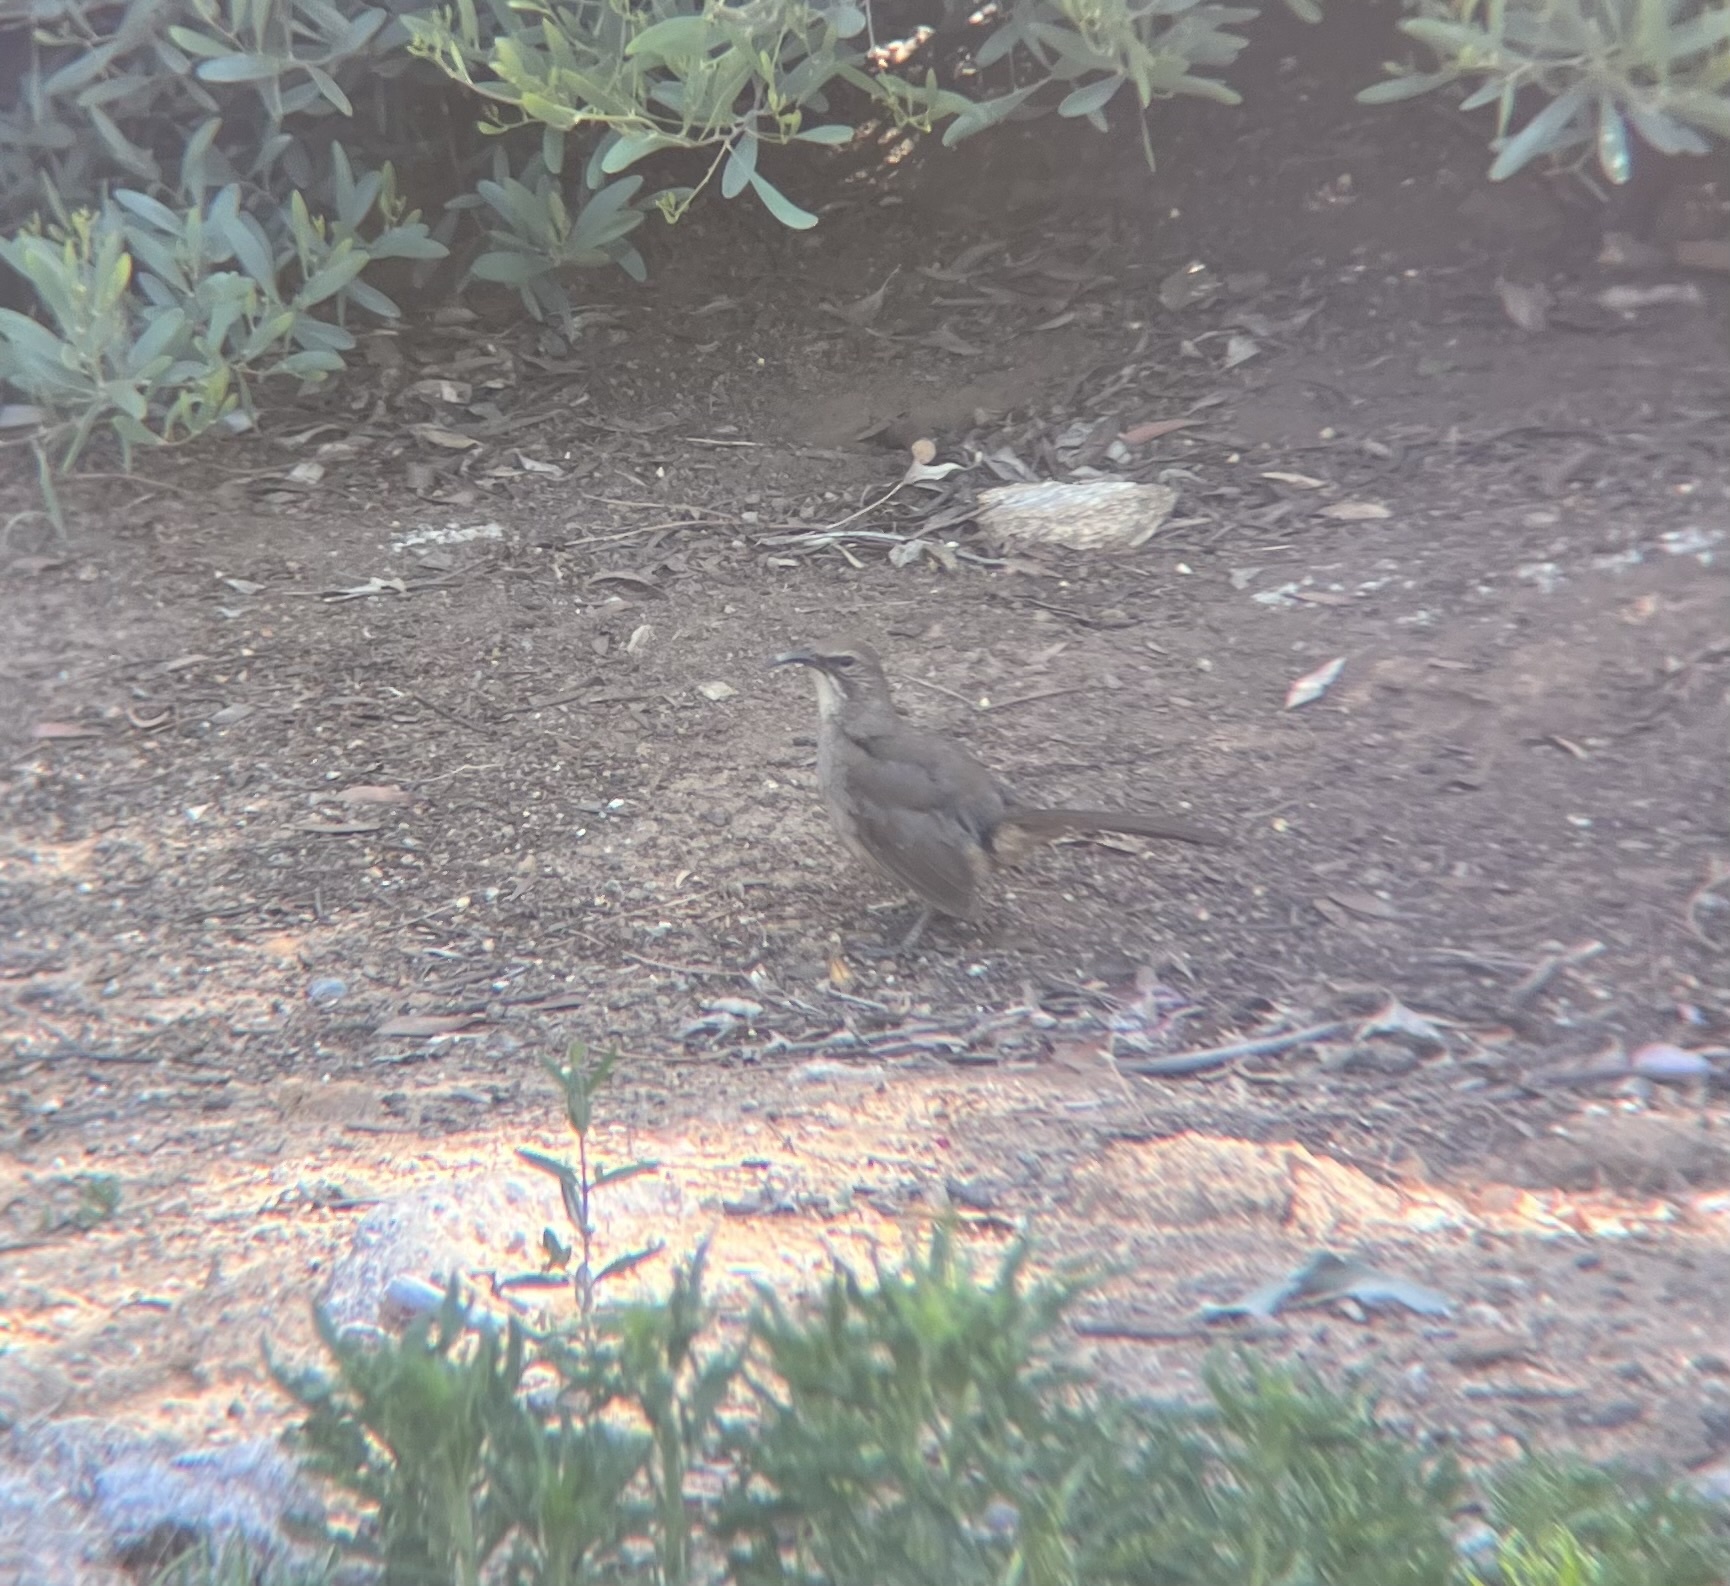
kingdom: Animalia
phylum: Chordata
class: Aves
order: Passeriformes
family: Mimidae
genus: Toxostoma
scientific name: Toxostoma redivivum
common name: California thrasher
